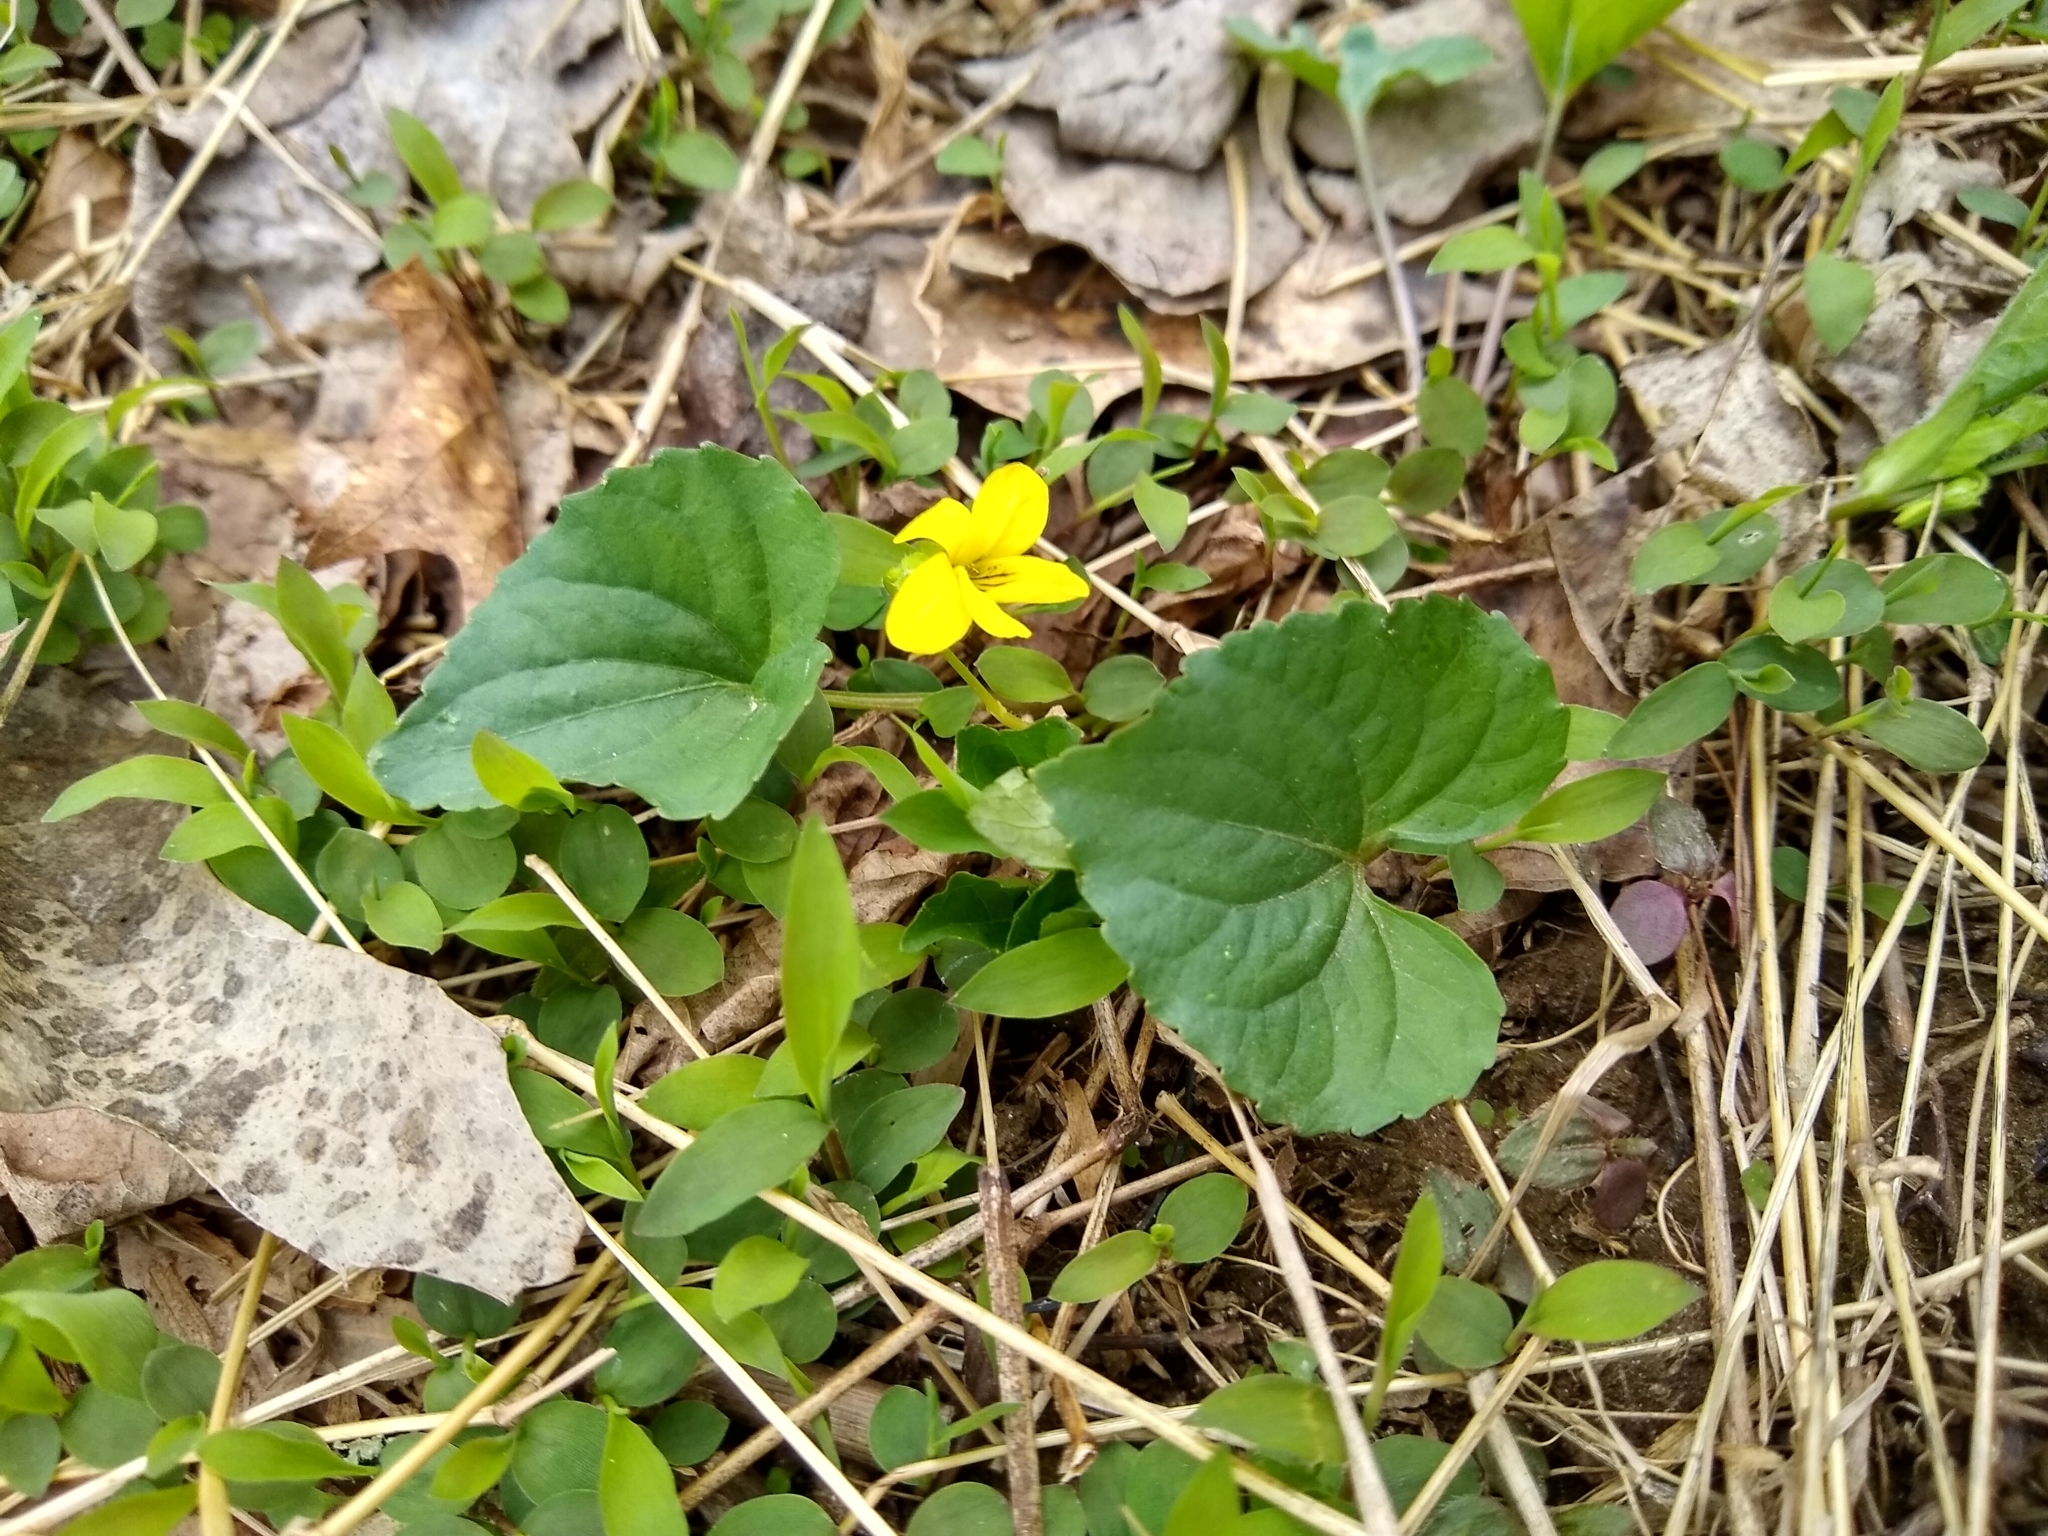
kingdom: Plantae
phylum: Tracheophyta
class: Magnoliopsida
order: Malpighiales
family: Violaceae
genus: Viola
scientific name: Viola eriocarpa
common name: Smooth yellow violet
